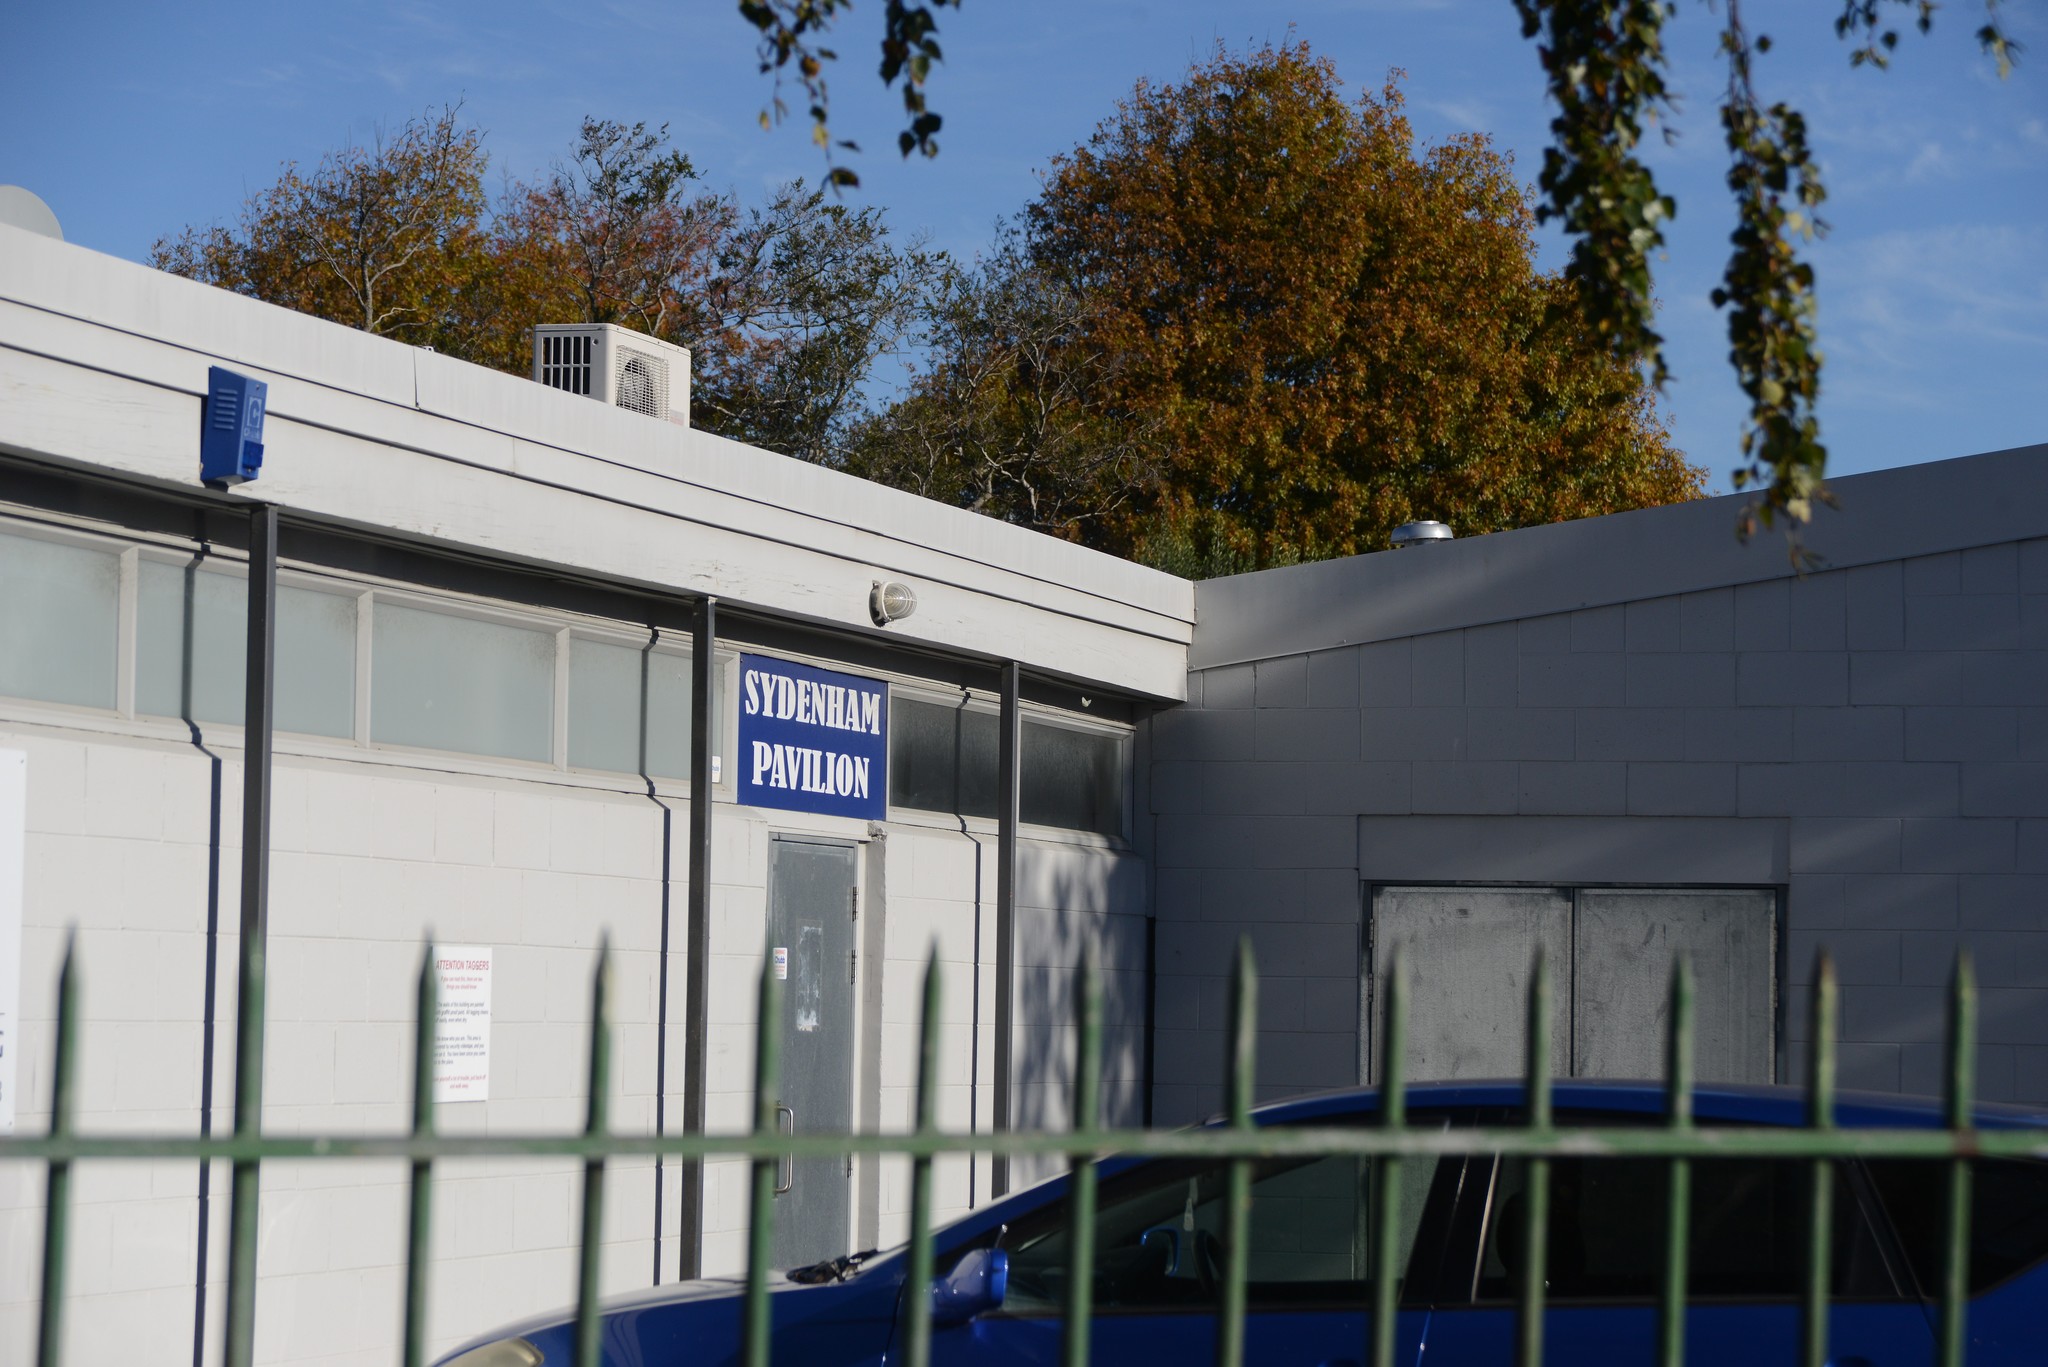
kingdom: Animalia
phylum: Arthropoda
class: Insecta
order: Lepidoptera
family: Pieridae
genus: Pieris
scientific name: Pieris rapae
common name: Small white
